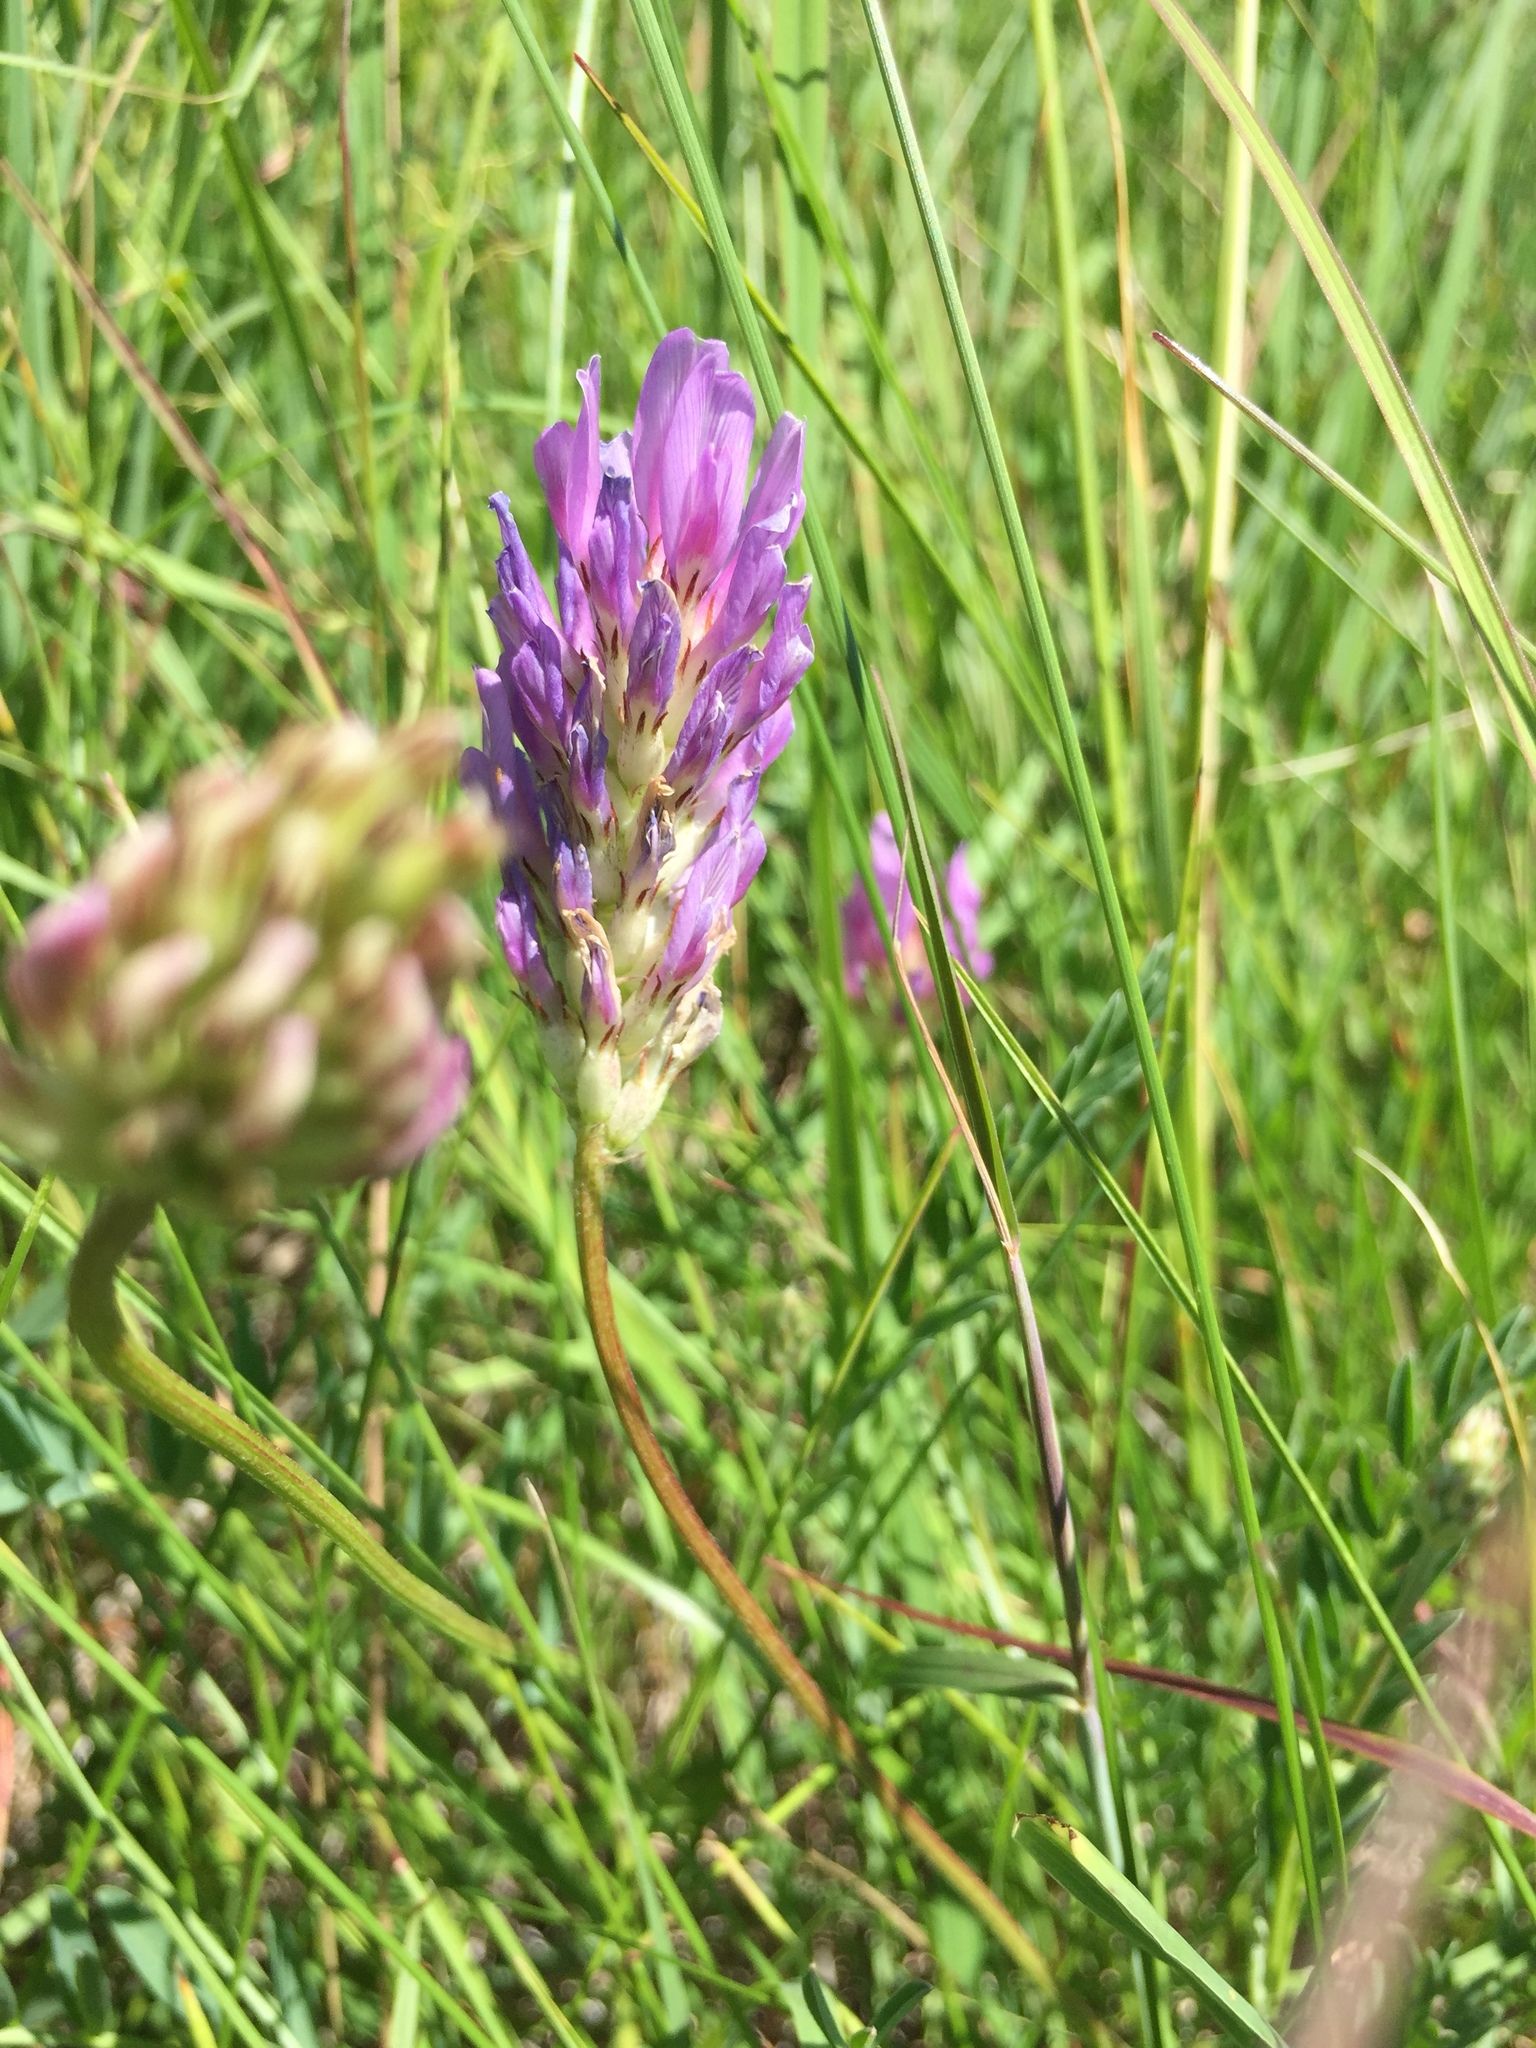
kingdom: Plantae
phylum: Tracheophyta
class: Magnoliopsida
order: Fabales
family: Fabaceae
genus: Astragalus
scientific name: Astragalus laxmannii
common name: Laxmann's milk-vetch
